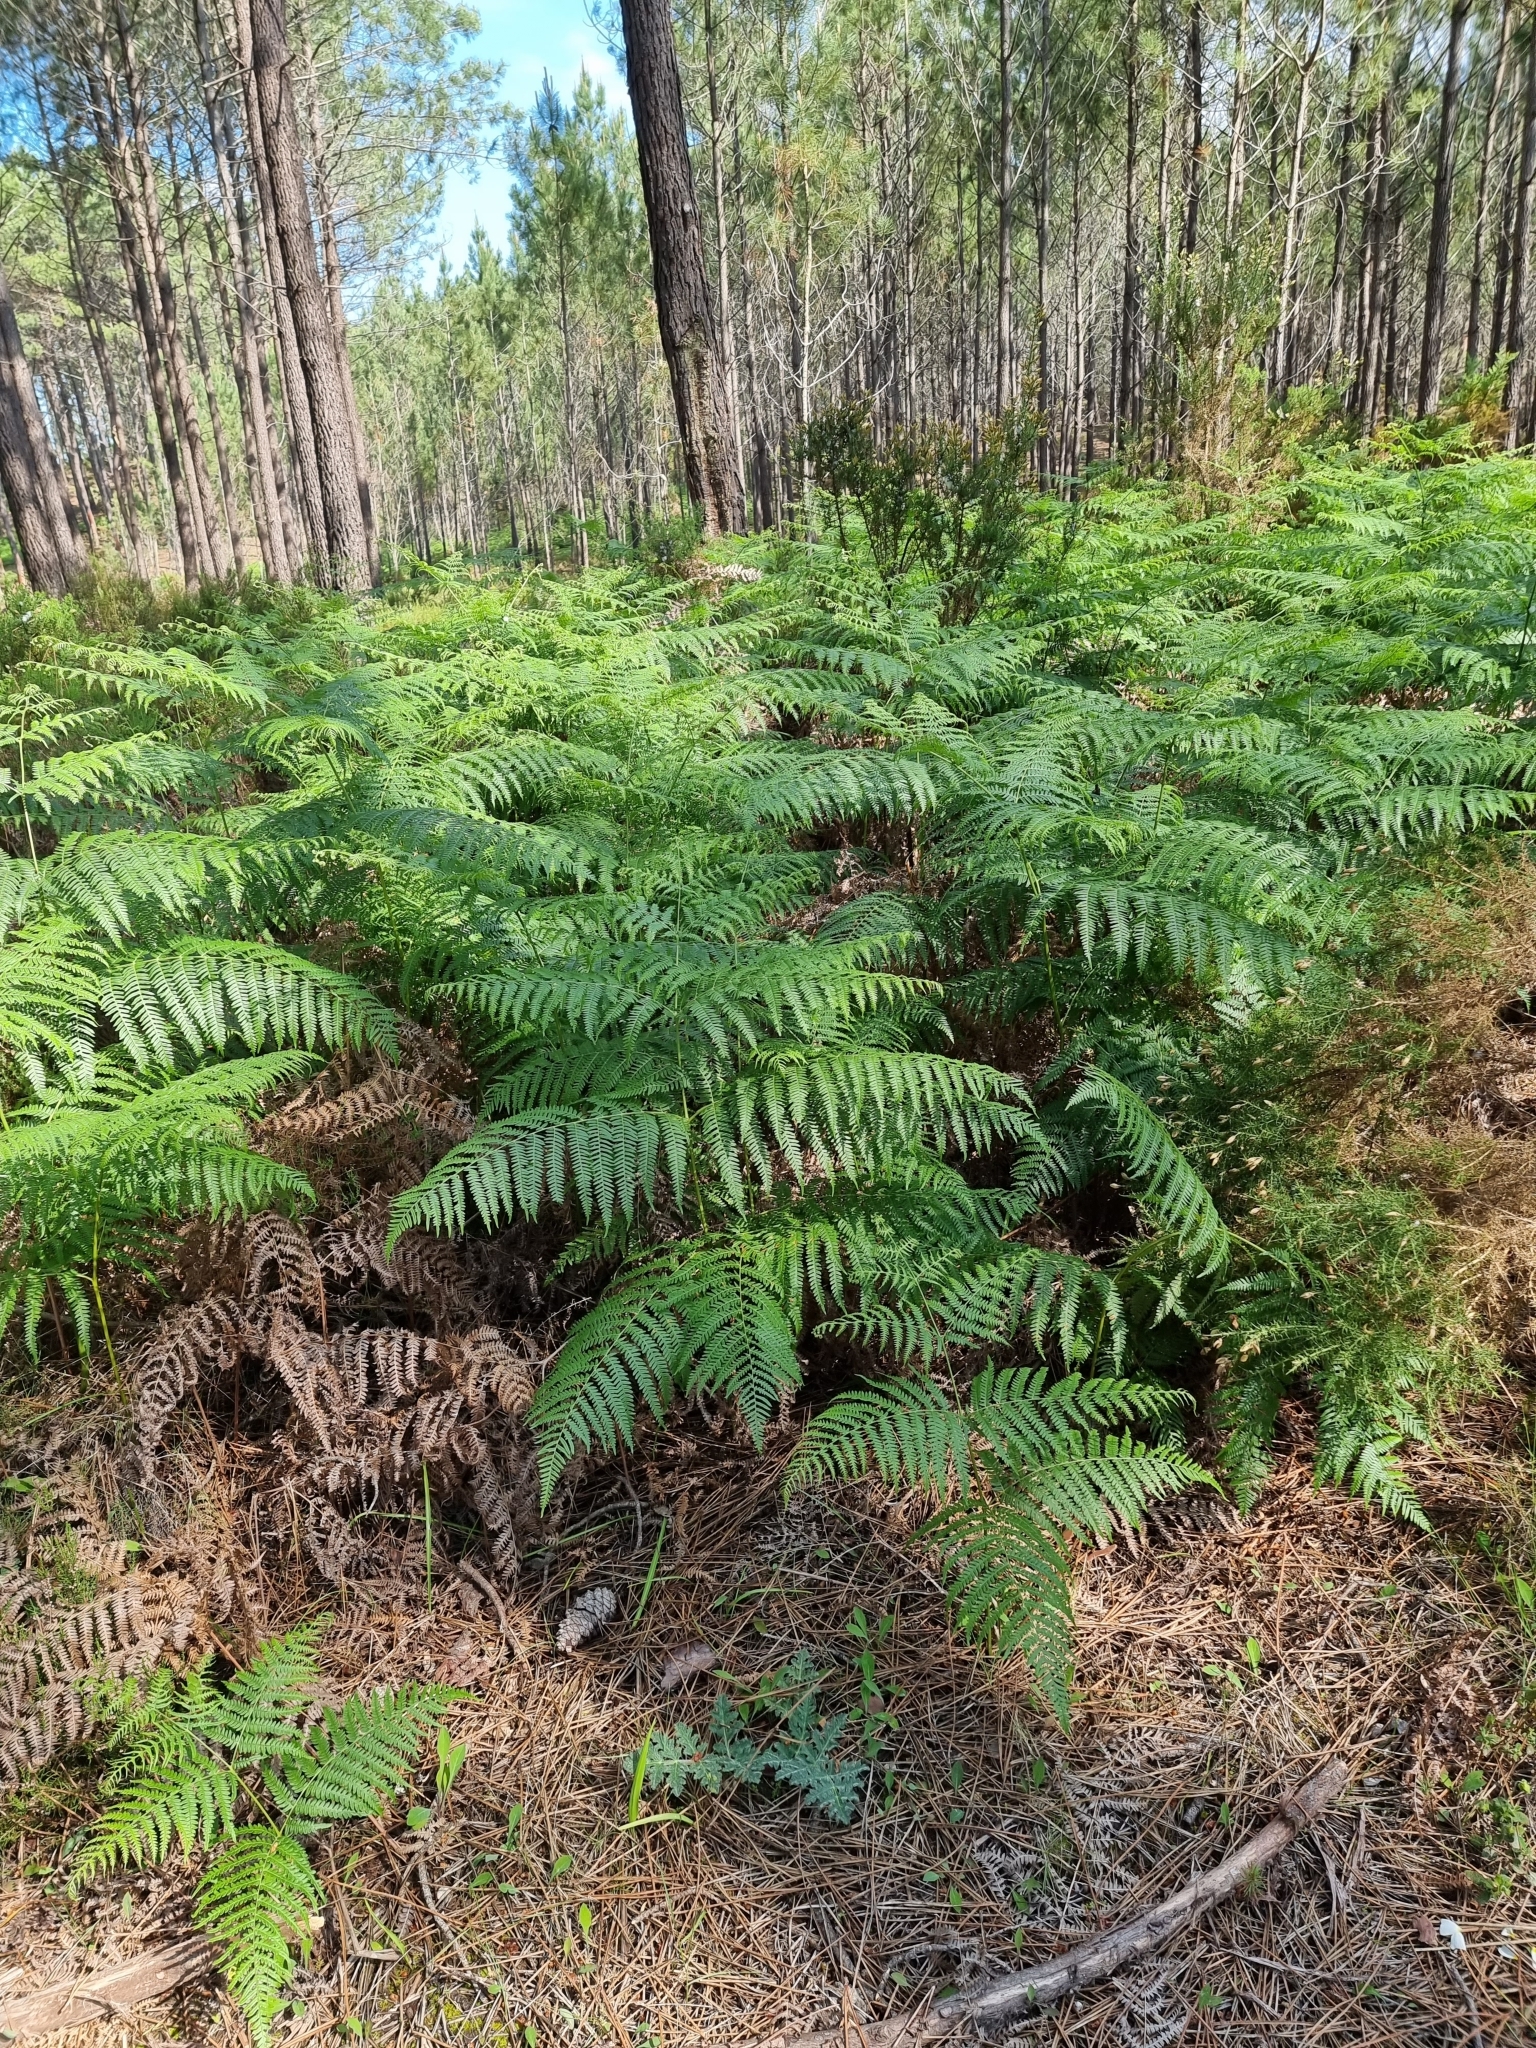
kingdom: Plantae
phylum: Tracheophyta
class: Polypodiopsida
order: Polypodiales
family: Dennstaedtiaceae
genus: Pteridium
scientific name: Pteridium aquilinum
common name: Bracken
